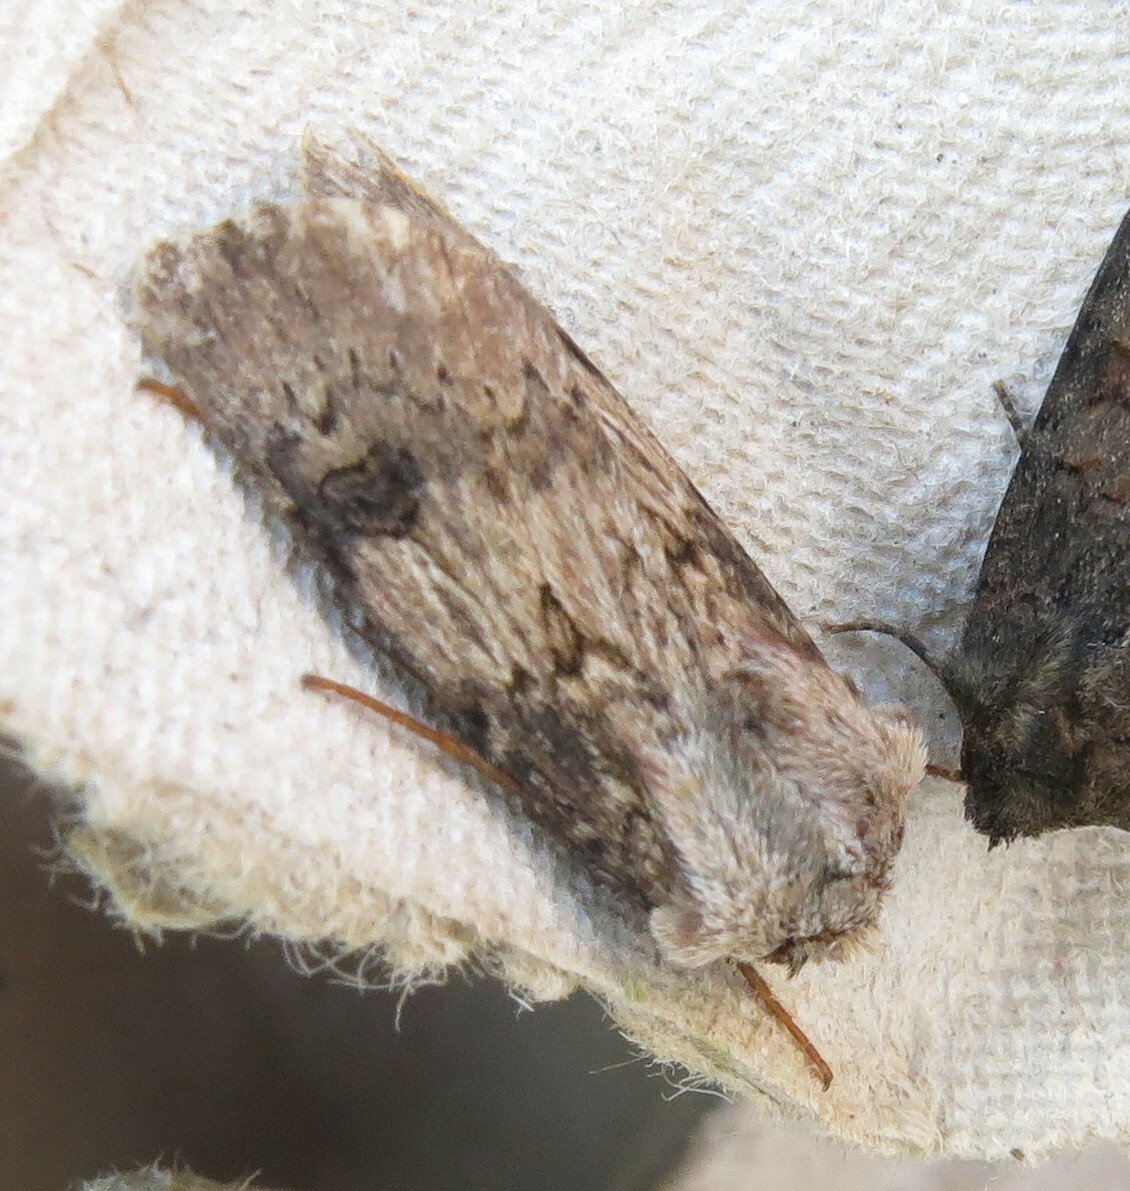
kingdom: Animalia
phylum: Arthropoda
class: Insecta
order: Lepidoptera
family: Noctuidae
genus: Agrotis
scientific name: Agrotis puta
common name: Shuttle-shaped dart
